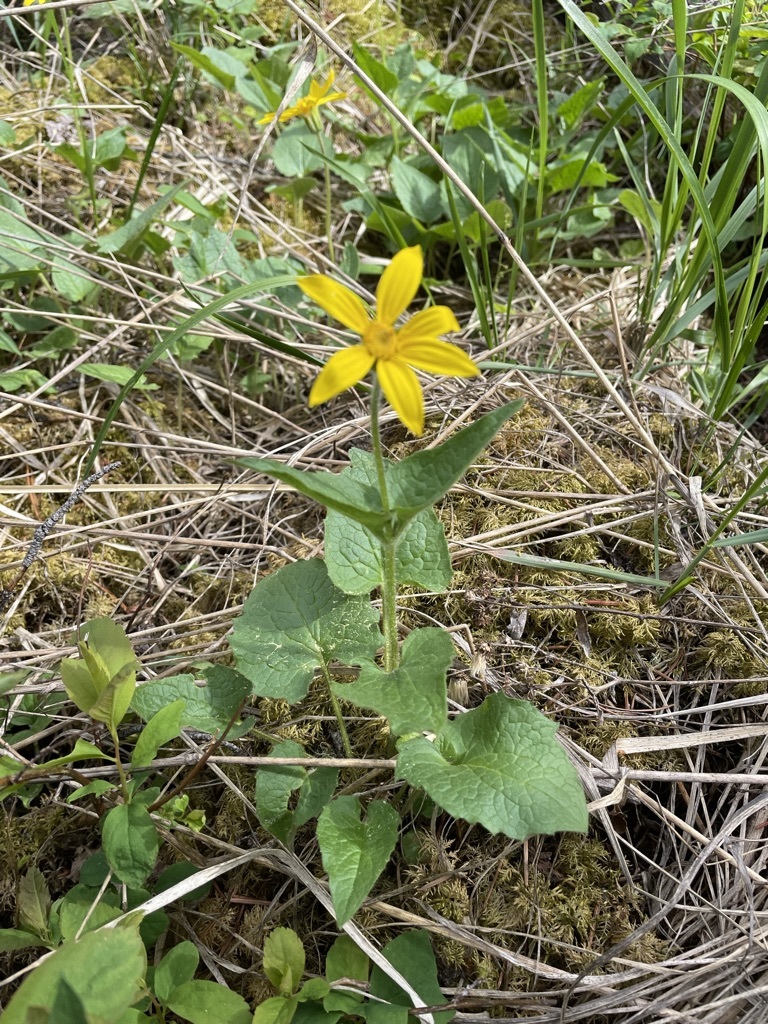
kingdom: Plantae
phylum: Tracheophyta
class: Magnoliopsida
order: Asterales
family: Asteraceae
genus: Arnica
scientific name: Arnica cordifolia
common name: Heart-leaf arnica
